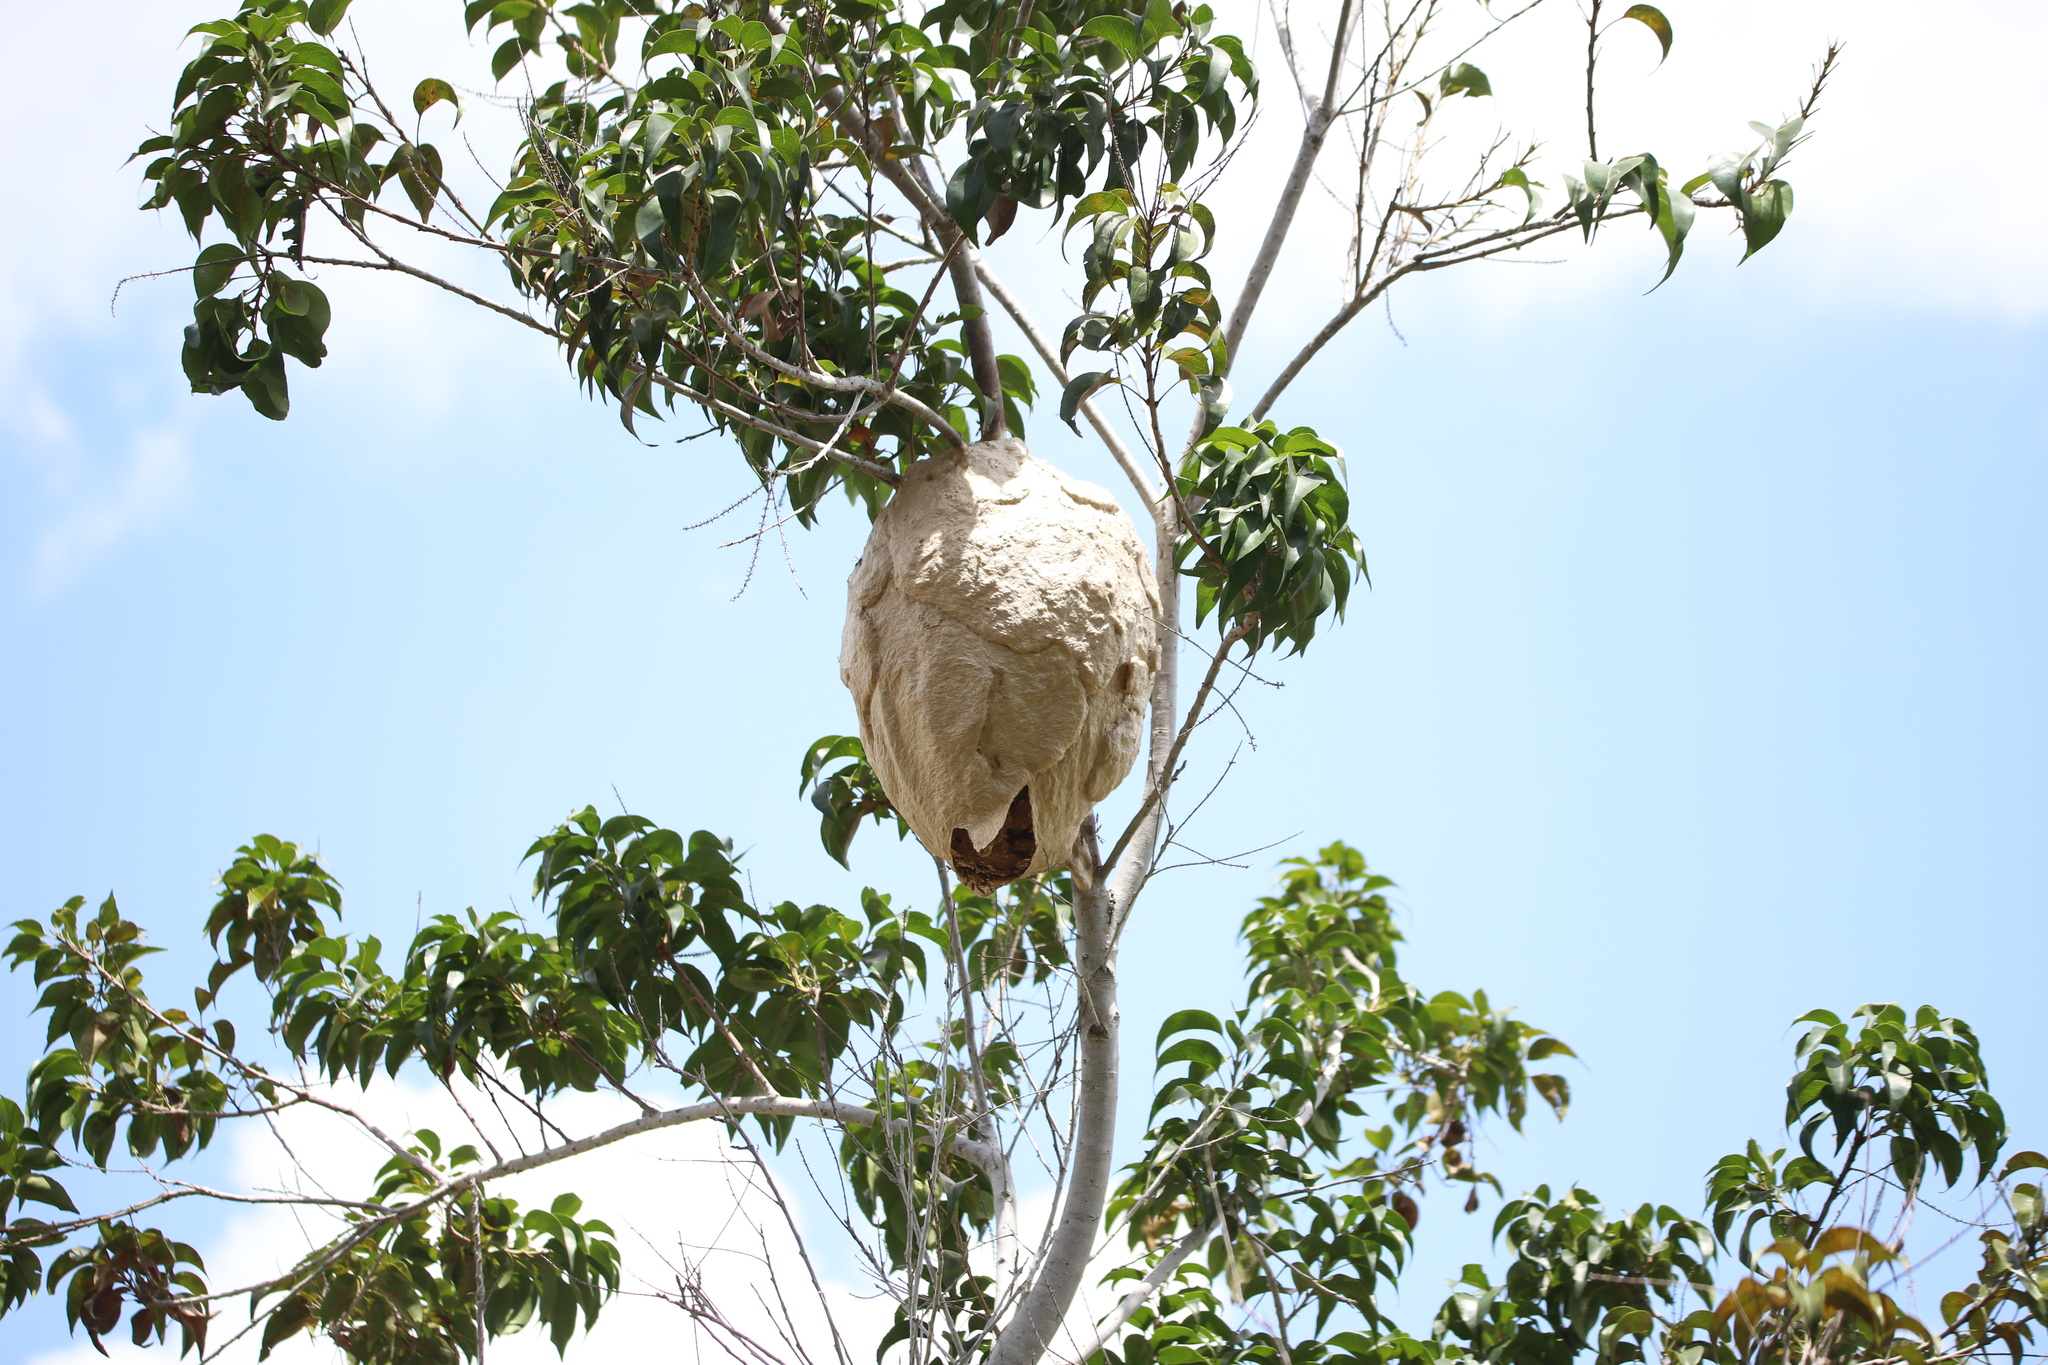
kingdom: Animalia
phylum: Arthropoda
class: Insecta
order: Hymenoptera
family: Vespidae
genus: Agelaia
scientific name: Agelaia areata
